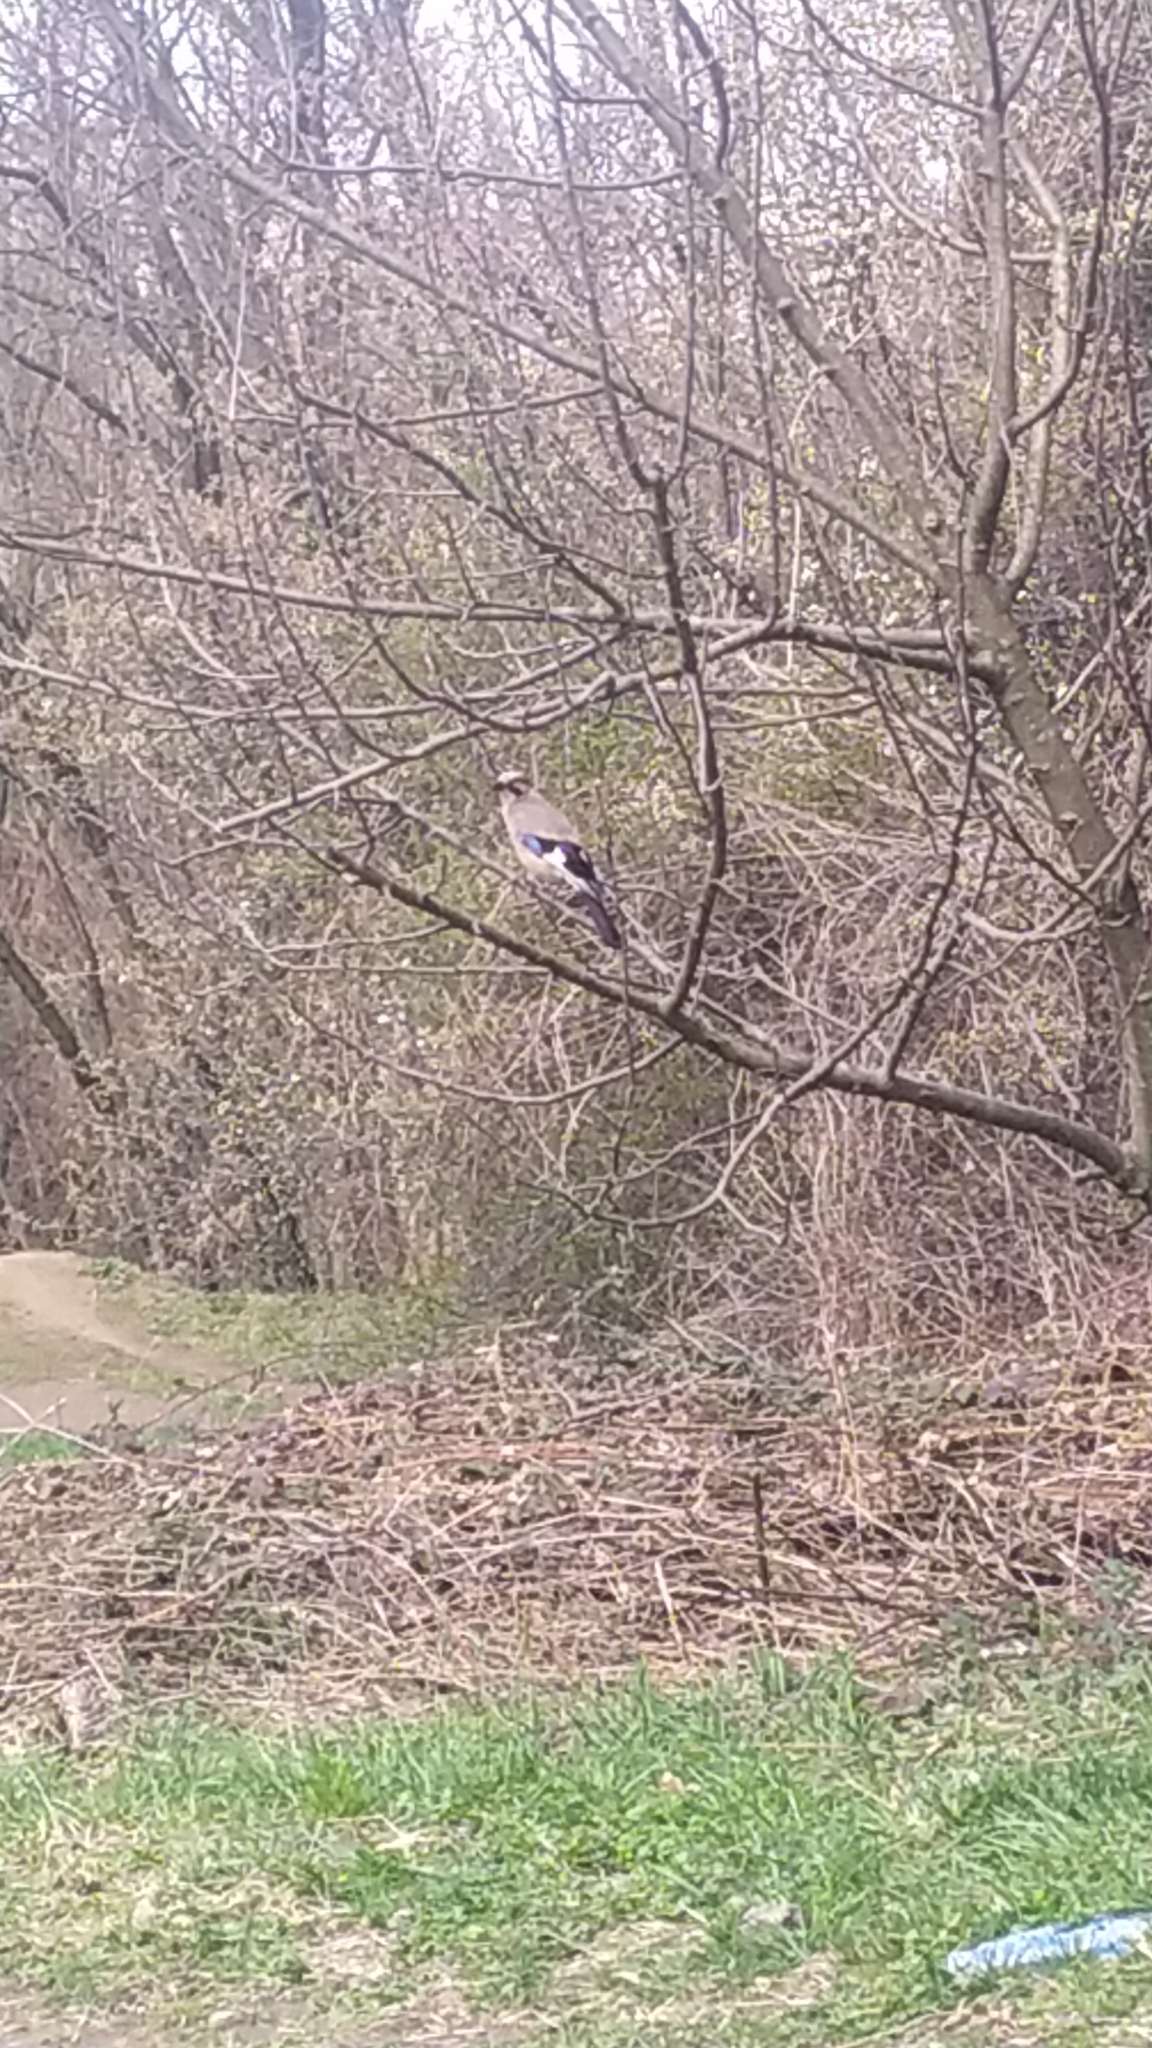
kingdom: Animalia
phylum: Chordata
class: Aves
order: Passeriformes
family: Corvidae
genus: Garrulus
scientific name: Garrulus glandarius
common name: Eurasian jay
